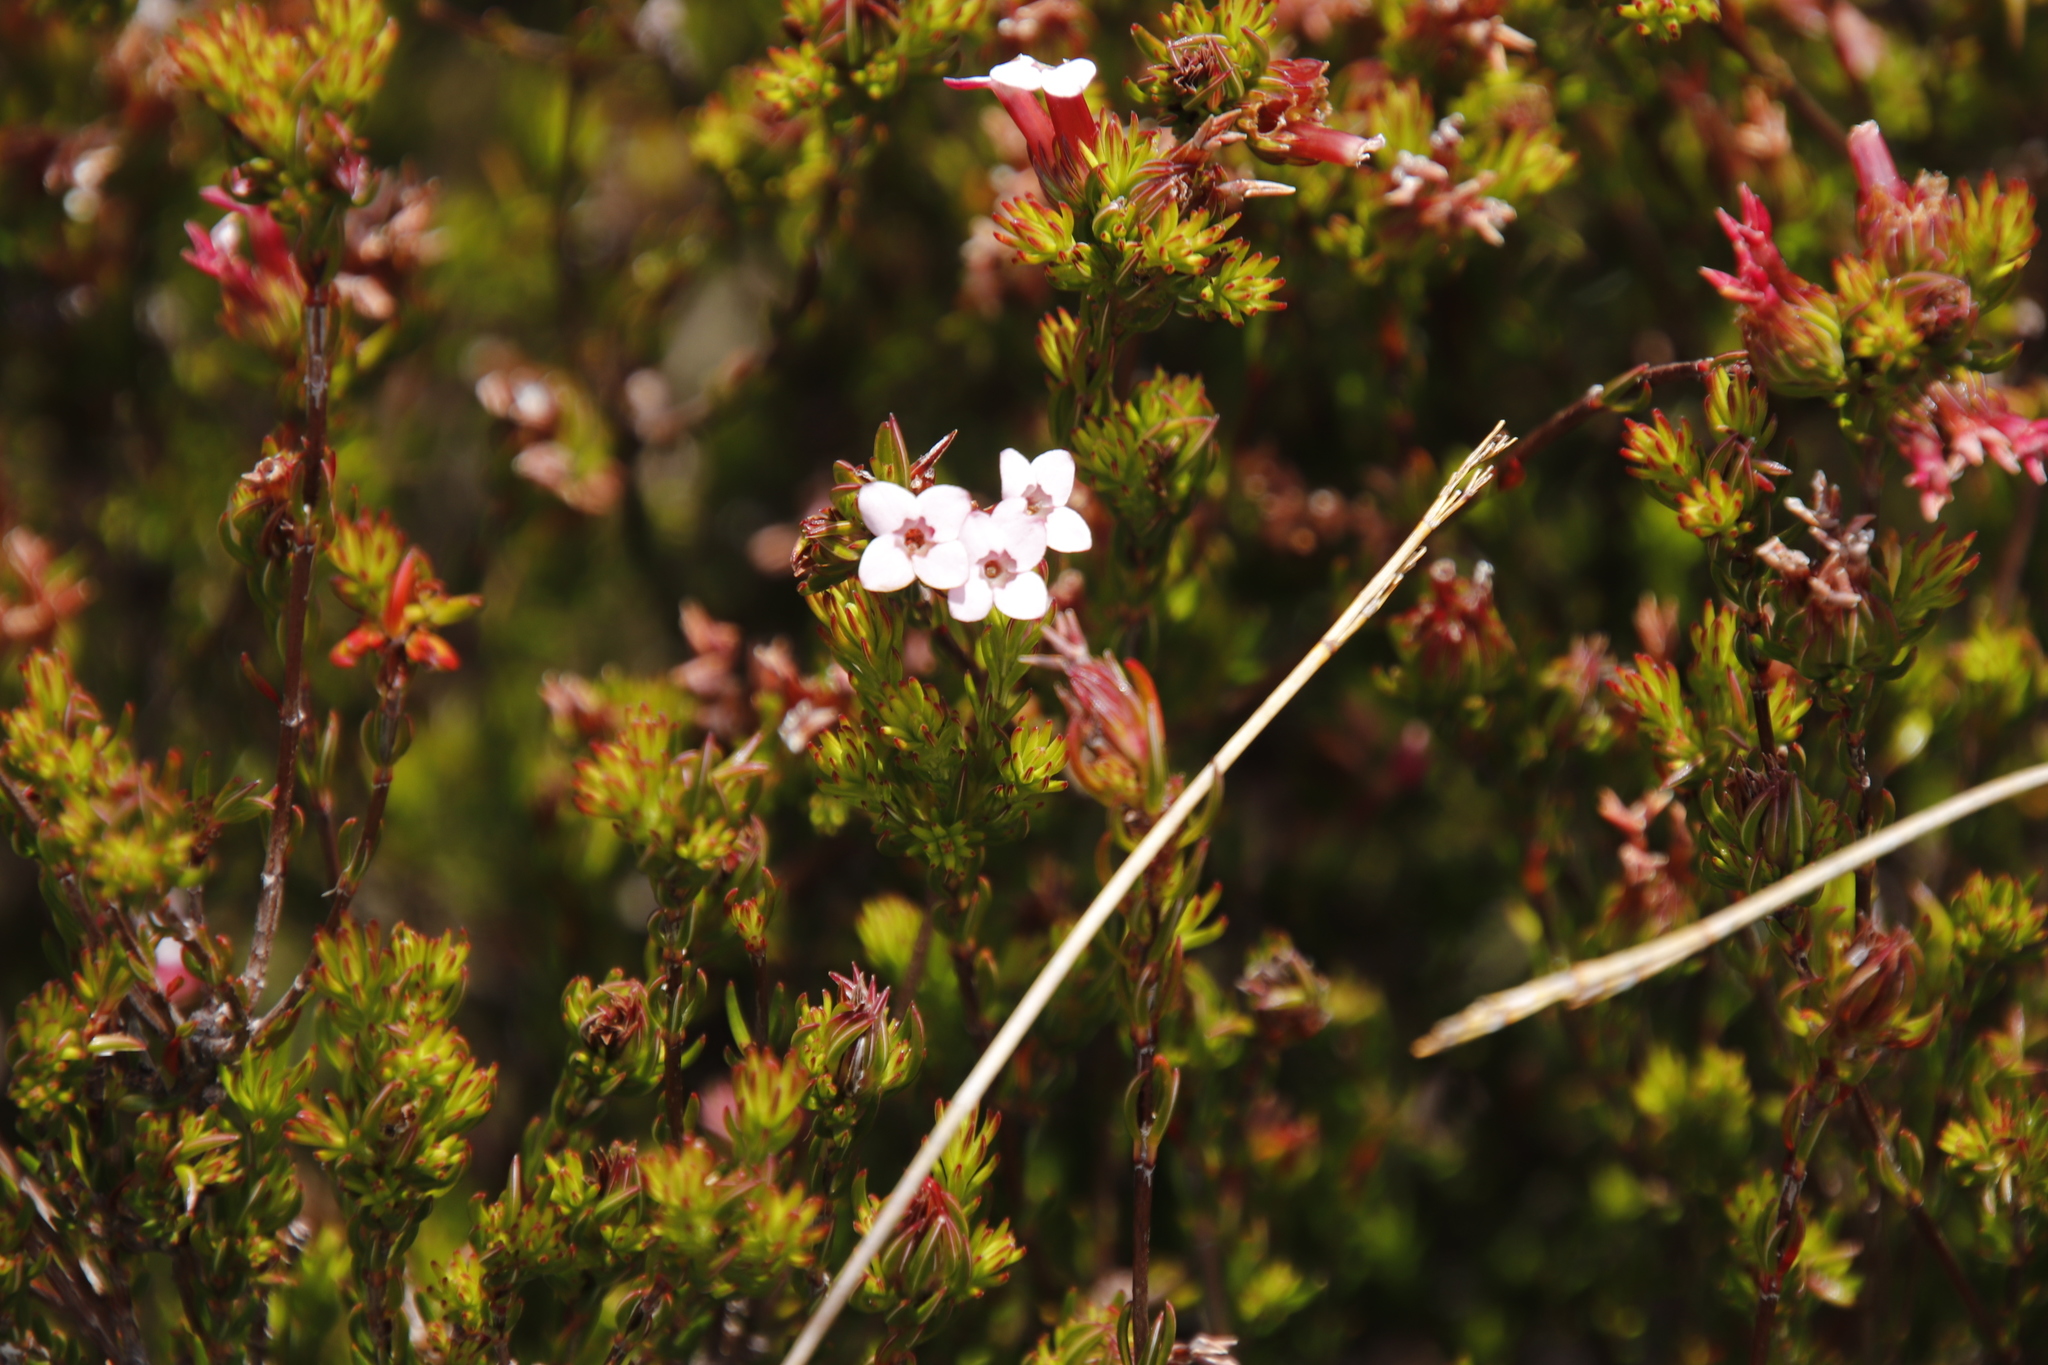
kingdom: Plantae
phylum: Tracheophyta
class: Magnoliopsida
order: Ericales
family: Ericaceae
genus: Erica
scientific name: Erica fastigiata
